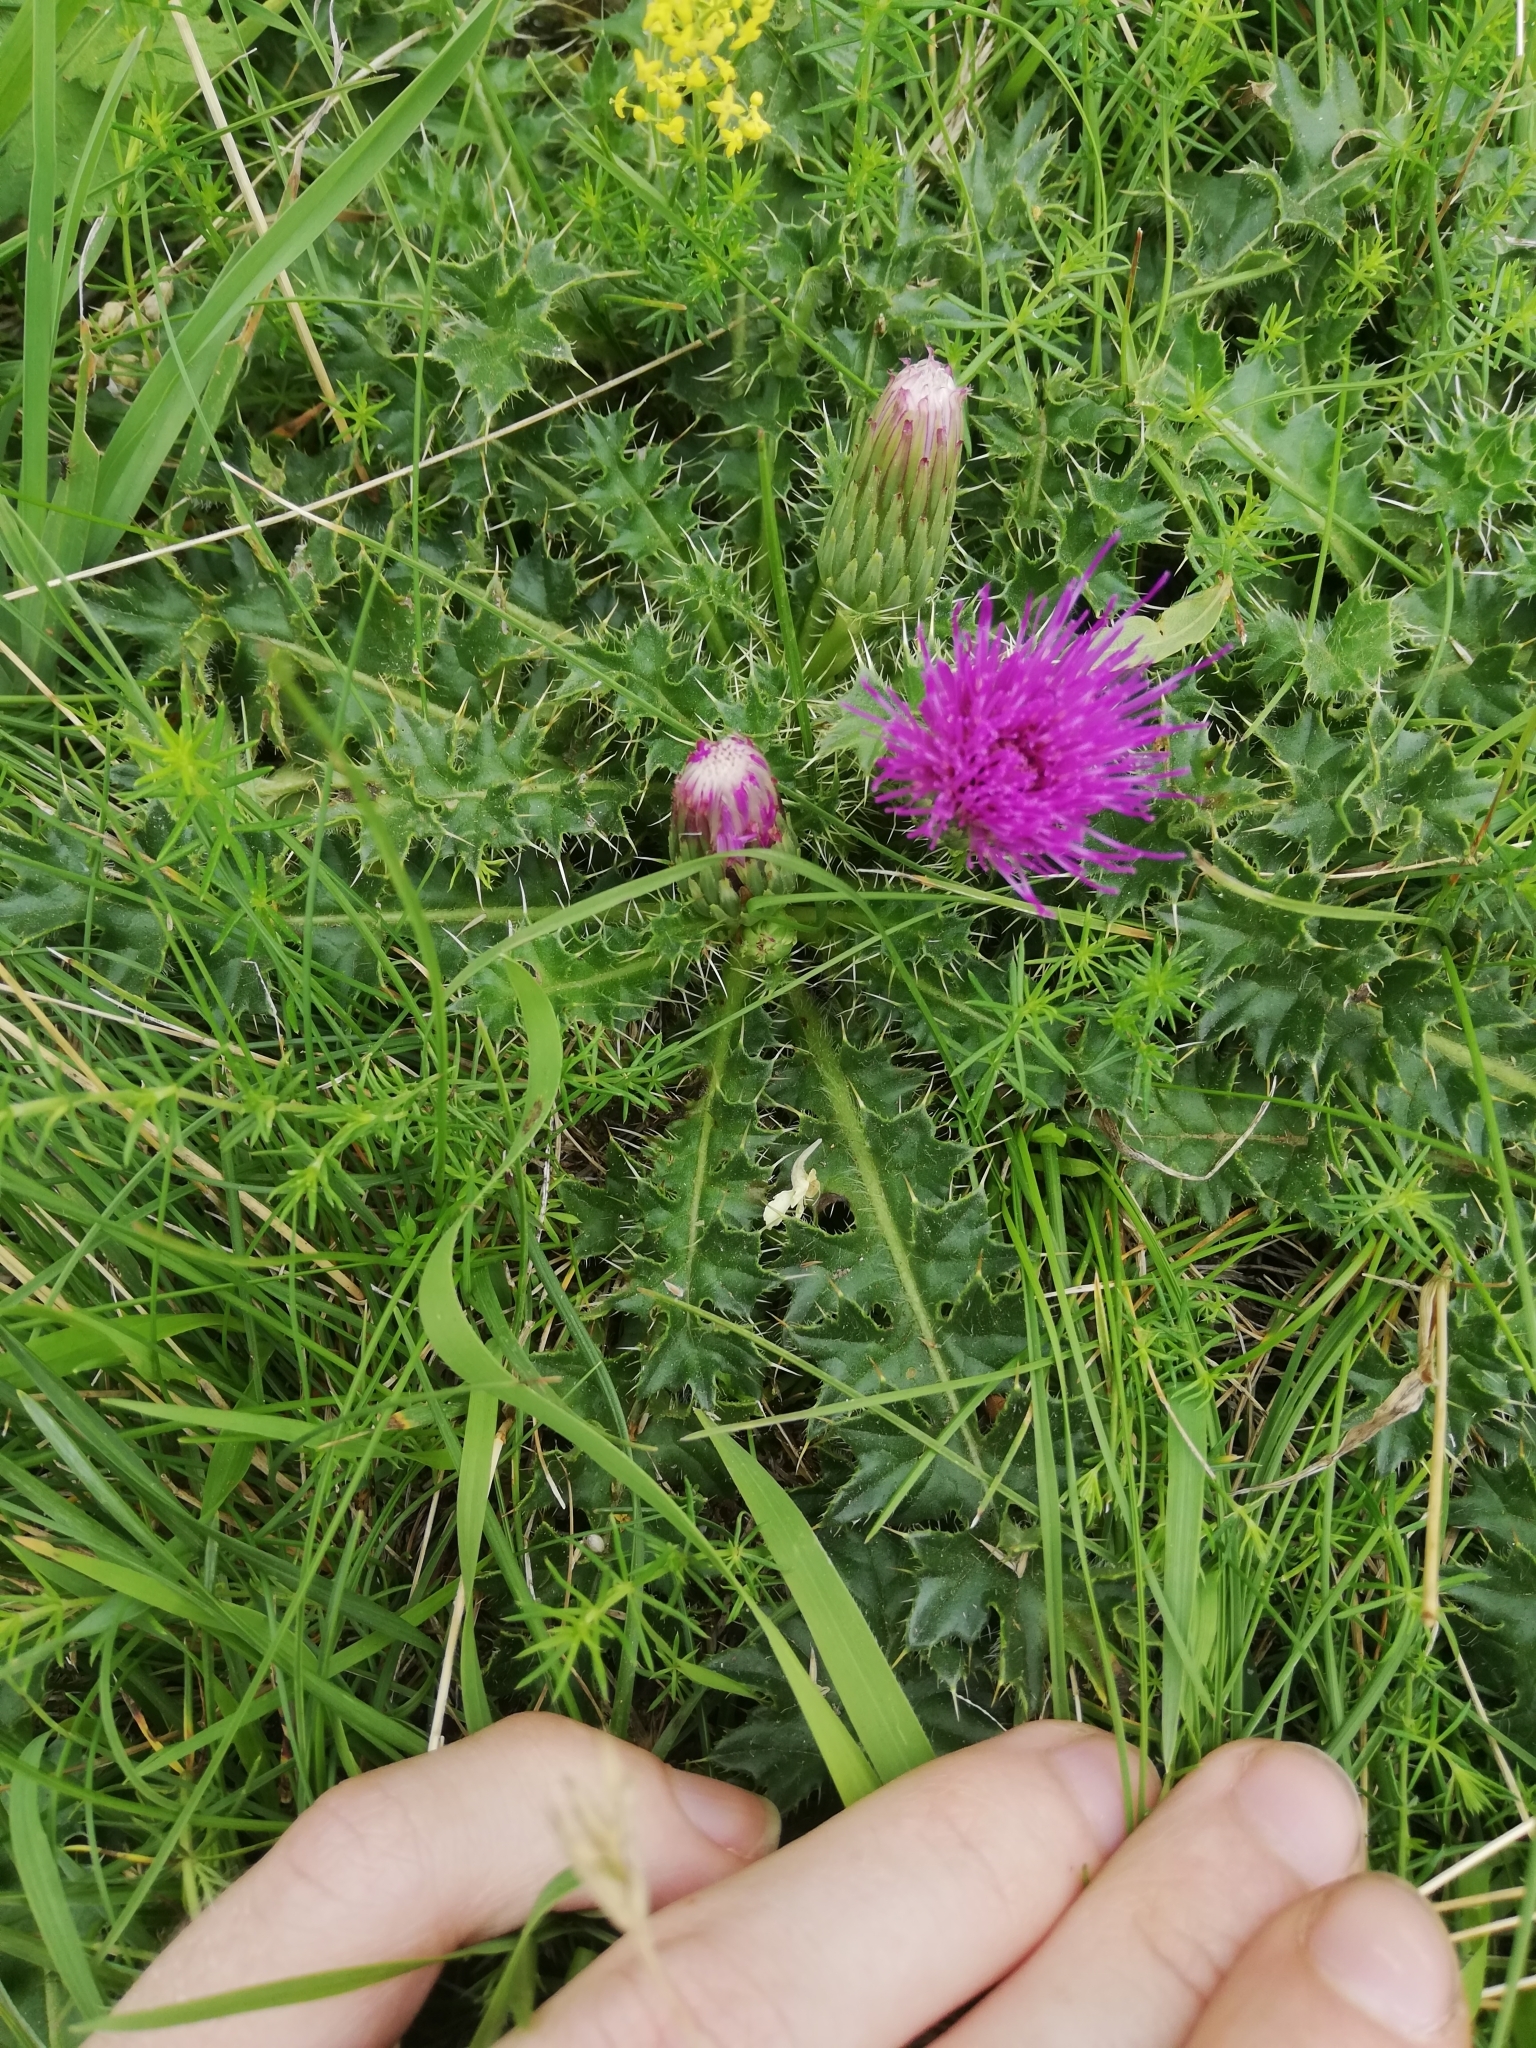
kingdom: Plantae
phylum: Tracheophyta
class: Magnoliopsida
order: Asterales
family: Asteraceae
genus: Cirsium
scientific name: Cirsium acaulon
